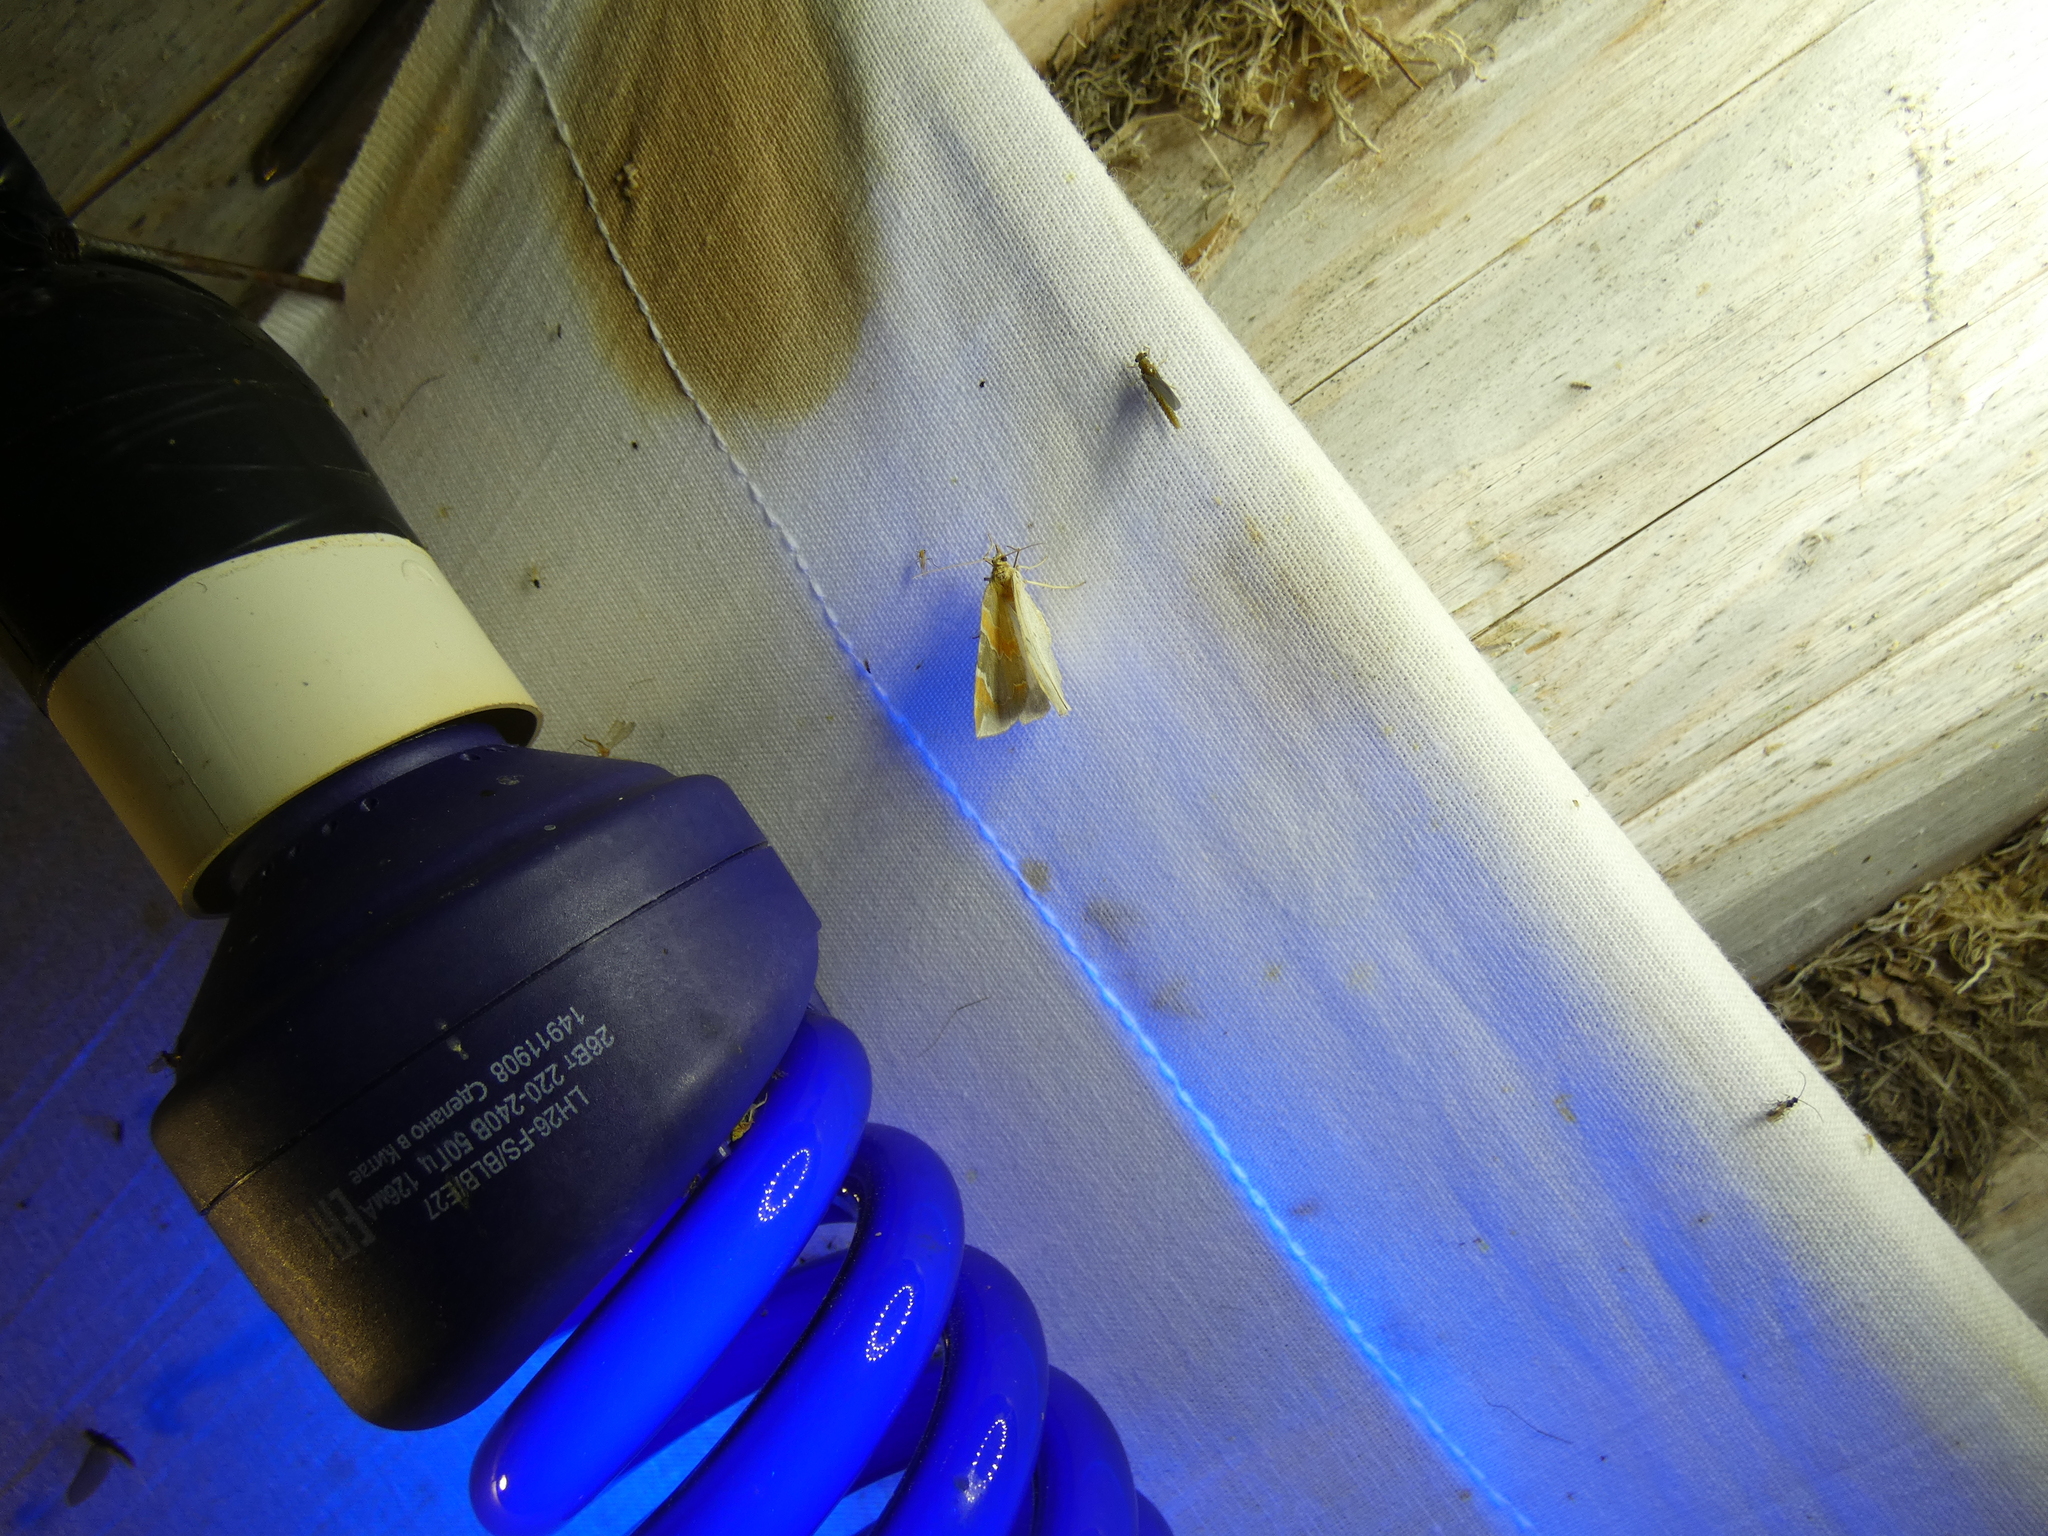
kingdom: Animalia
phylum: Arthropoda
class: Insecta
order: Lepidoptera
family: Geometridae
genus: Eulithis
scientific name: Eulithis pyropata
